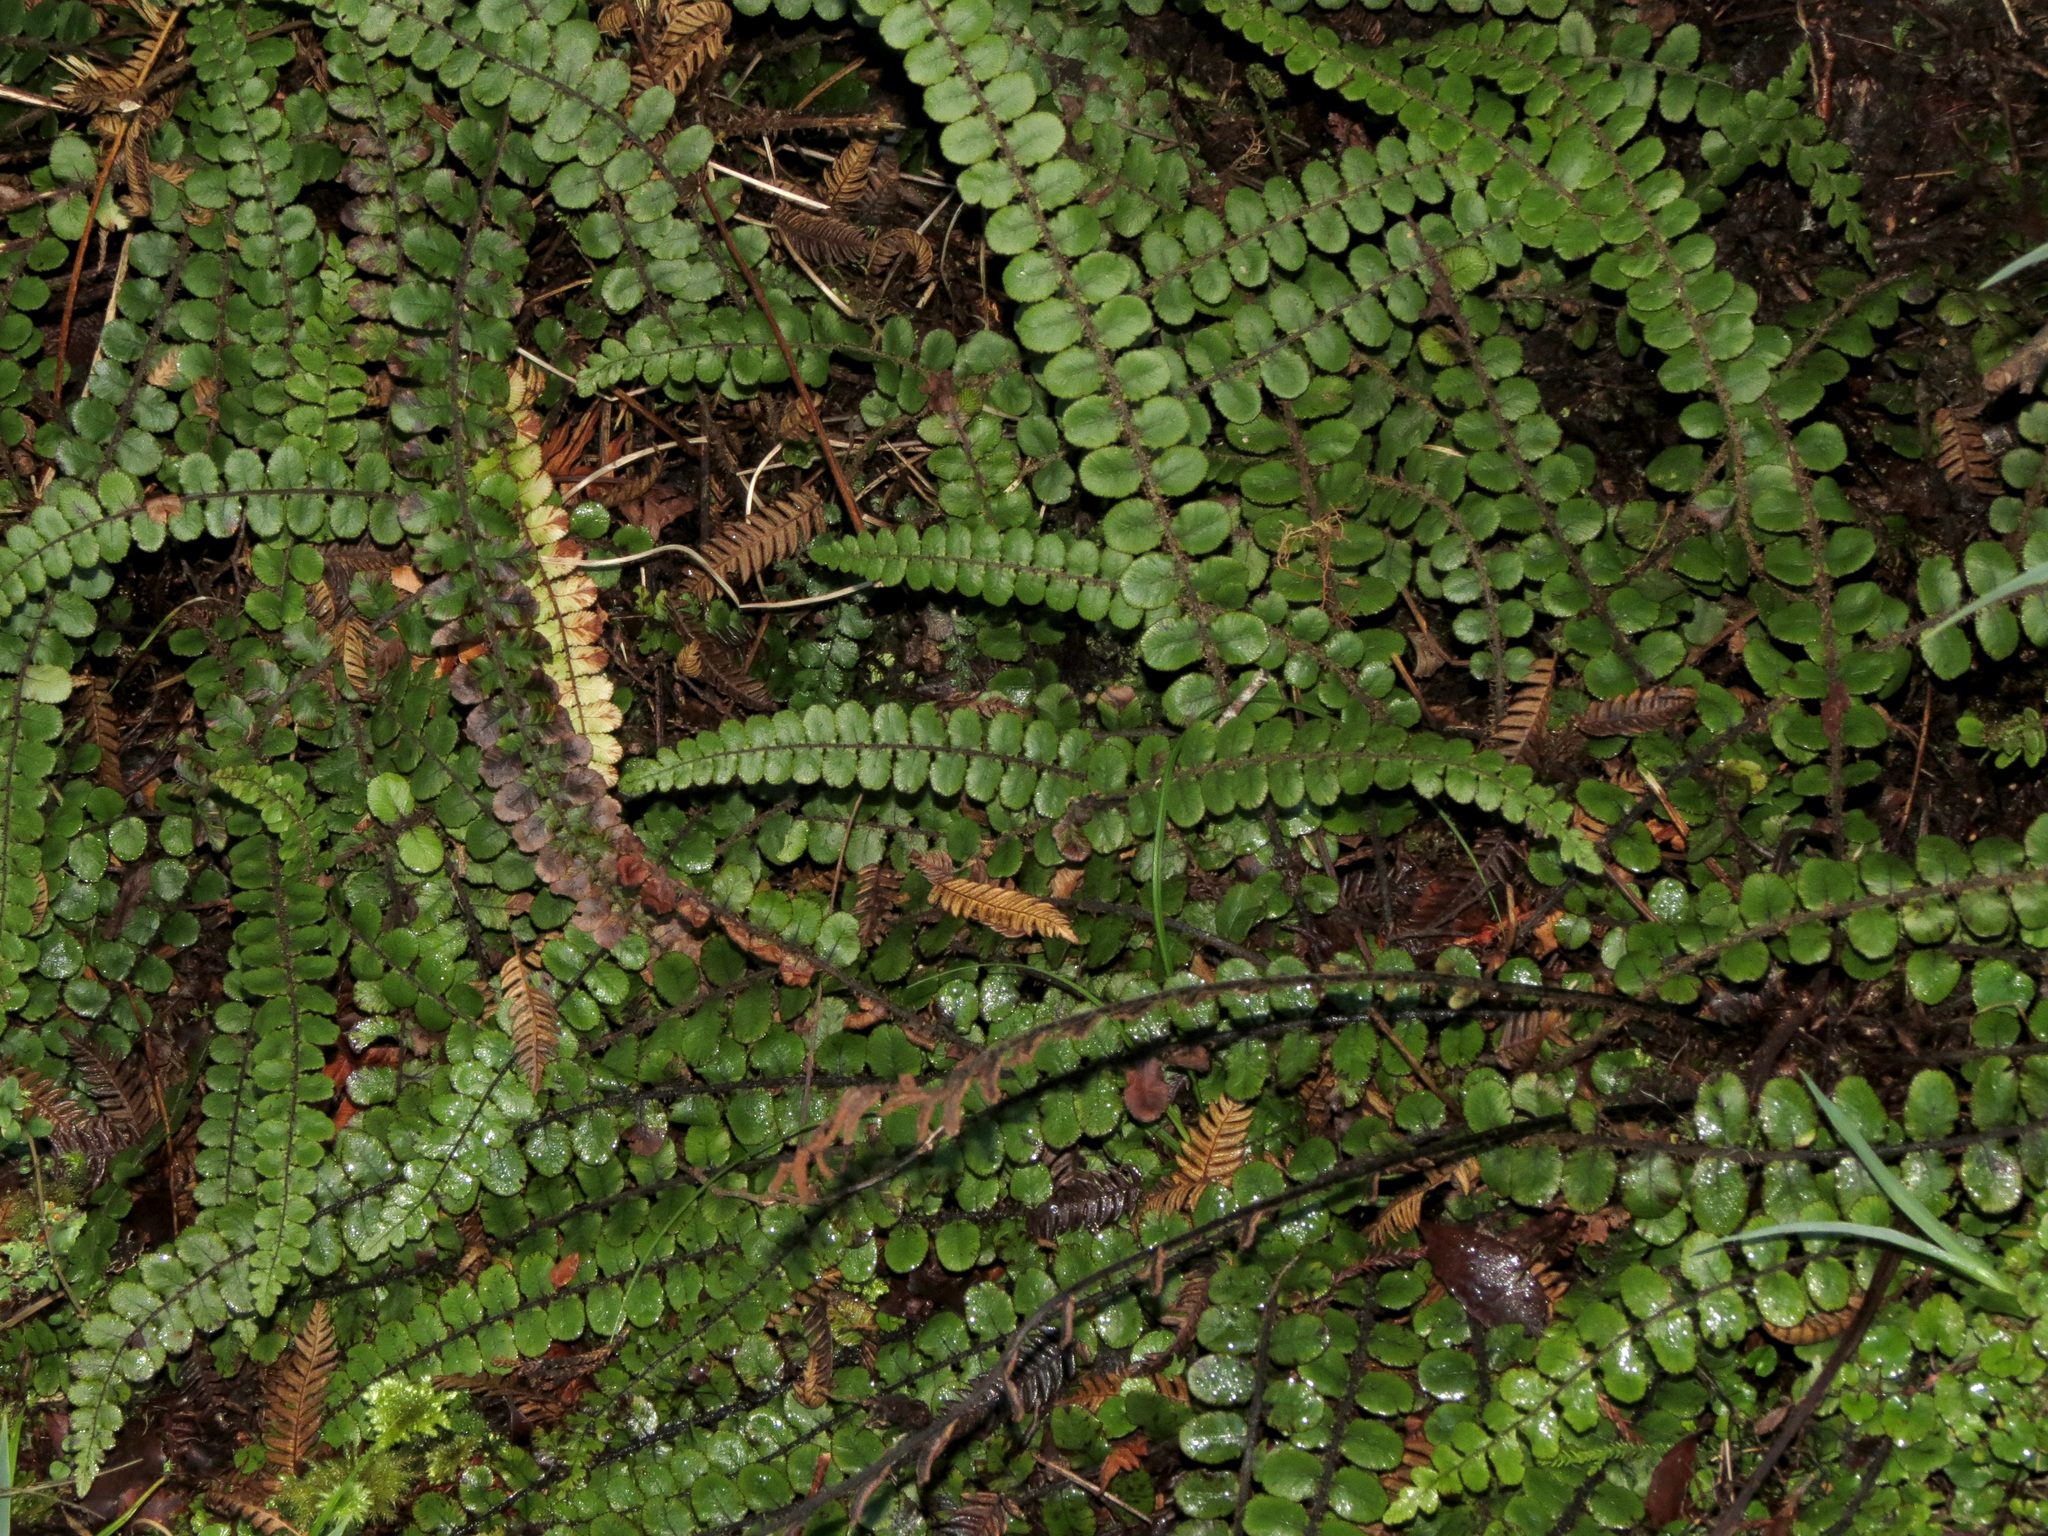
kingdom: Plantae
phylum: Tracheophyta
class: Polypodiopsida
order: Polypodiales
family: Blechnaceae
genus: Cranfillia
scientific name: Cranfillia fluviatilis
